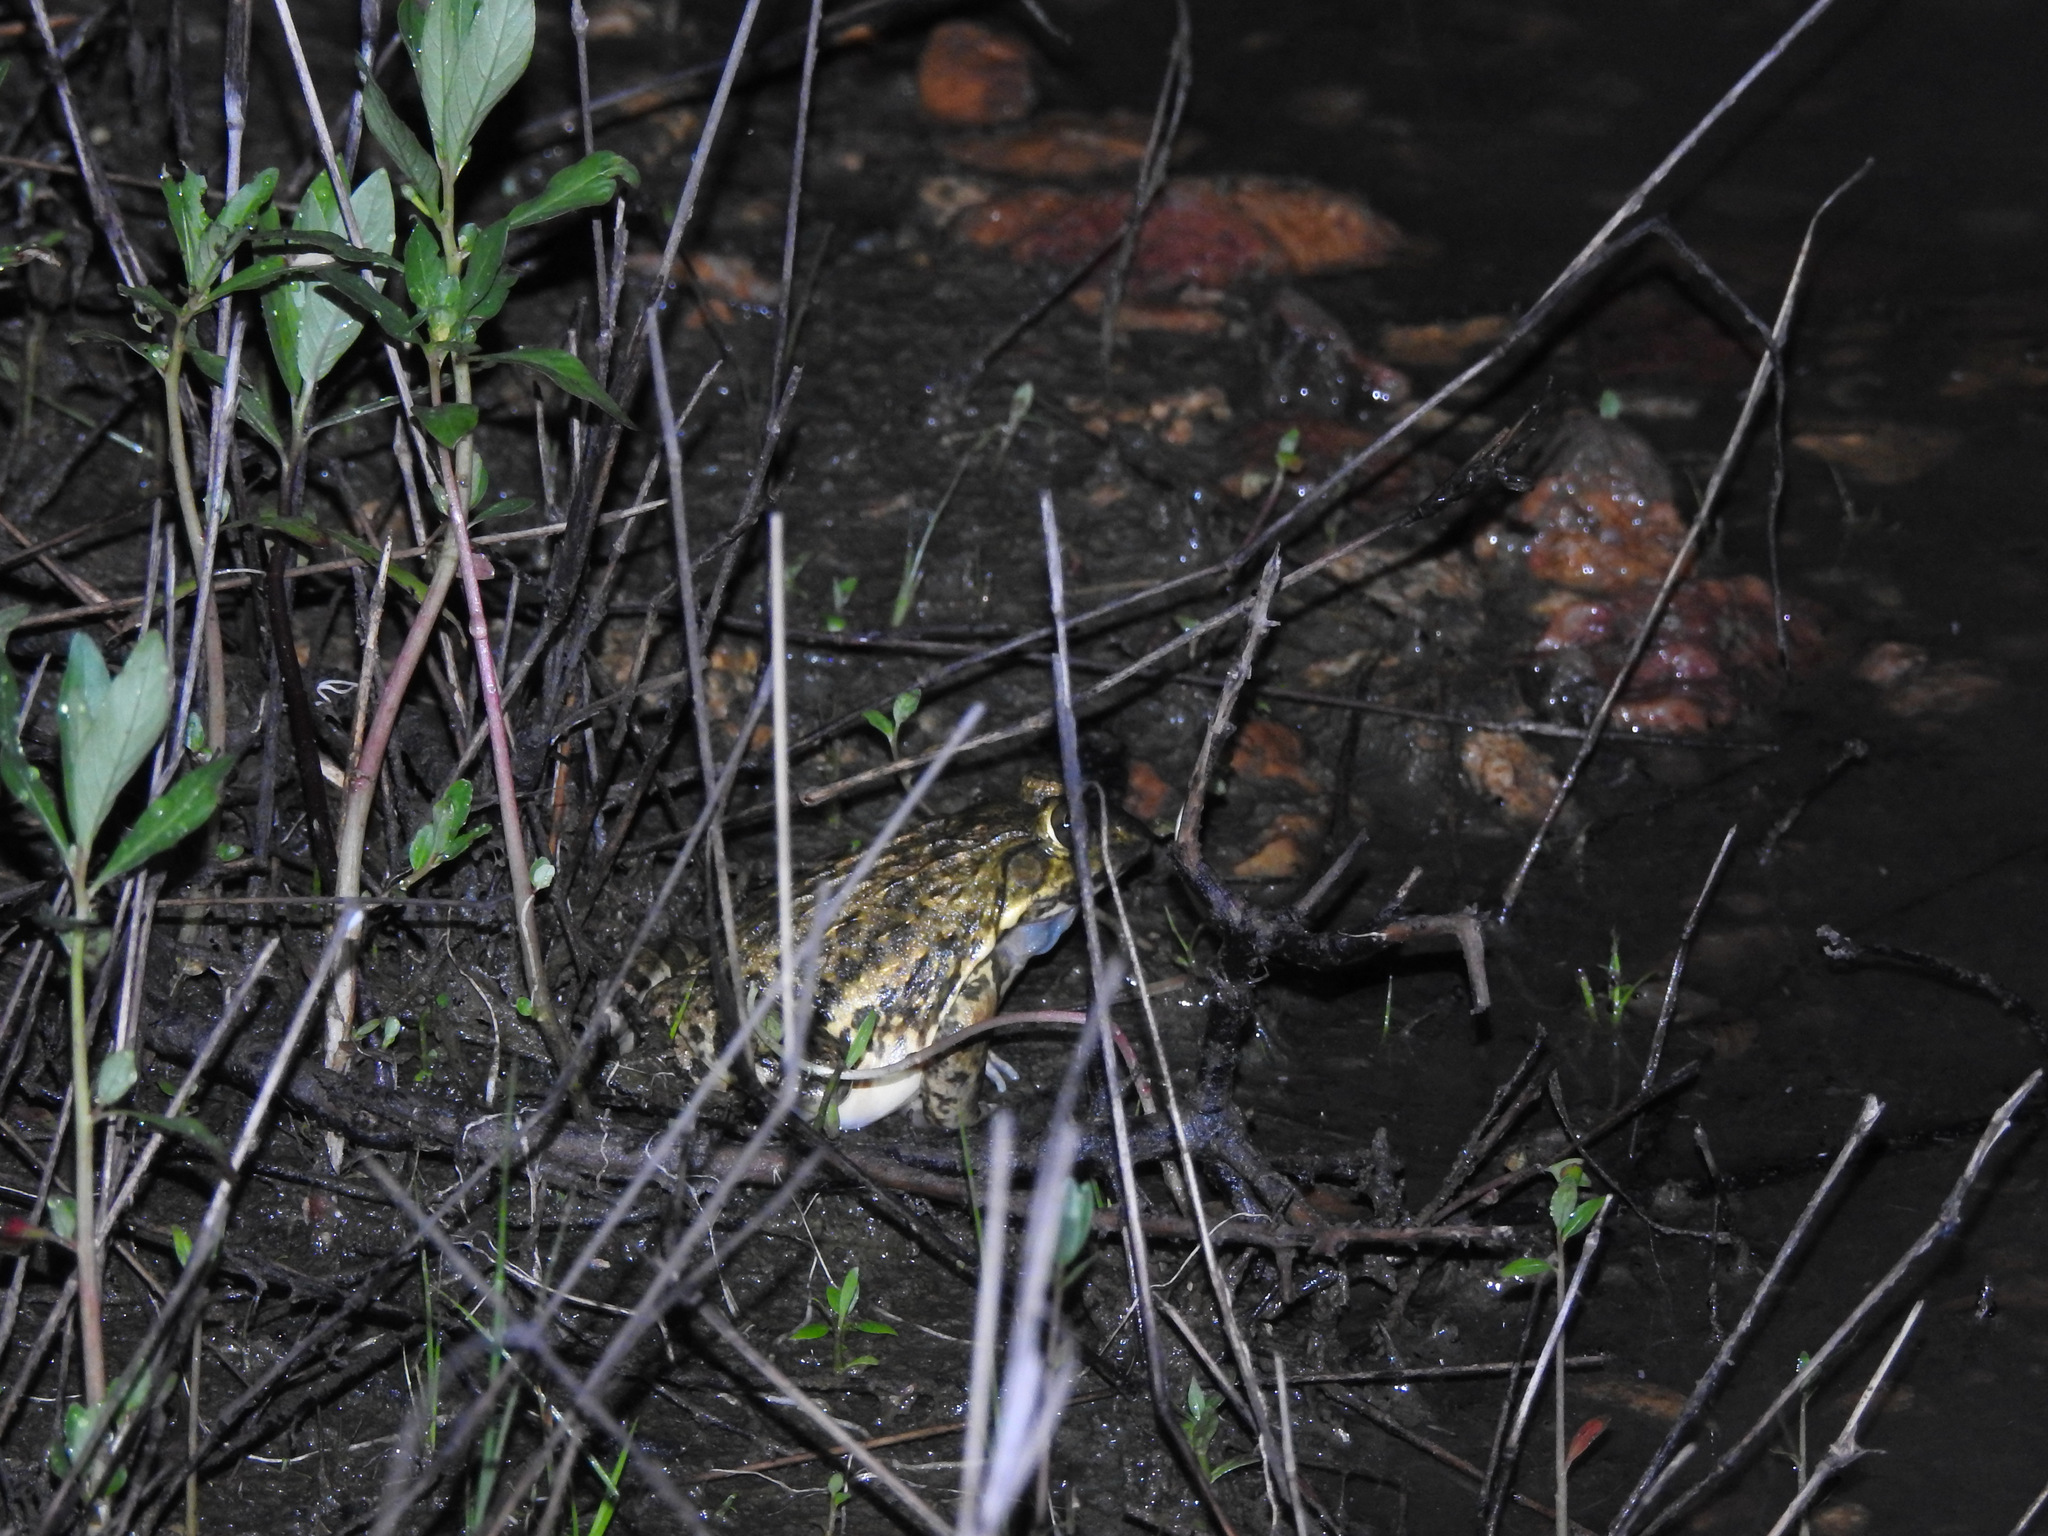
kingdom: Animalia
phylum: Chordata
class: Amphibia
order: Anura
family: Dicroglossidae
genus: Hoplobatrachus
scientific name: Hoplobatrachus tigerinus
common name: Indian bullfrog
